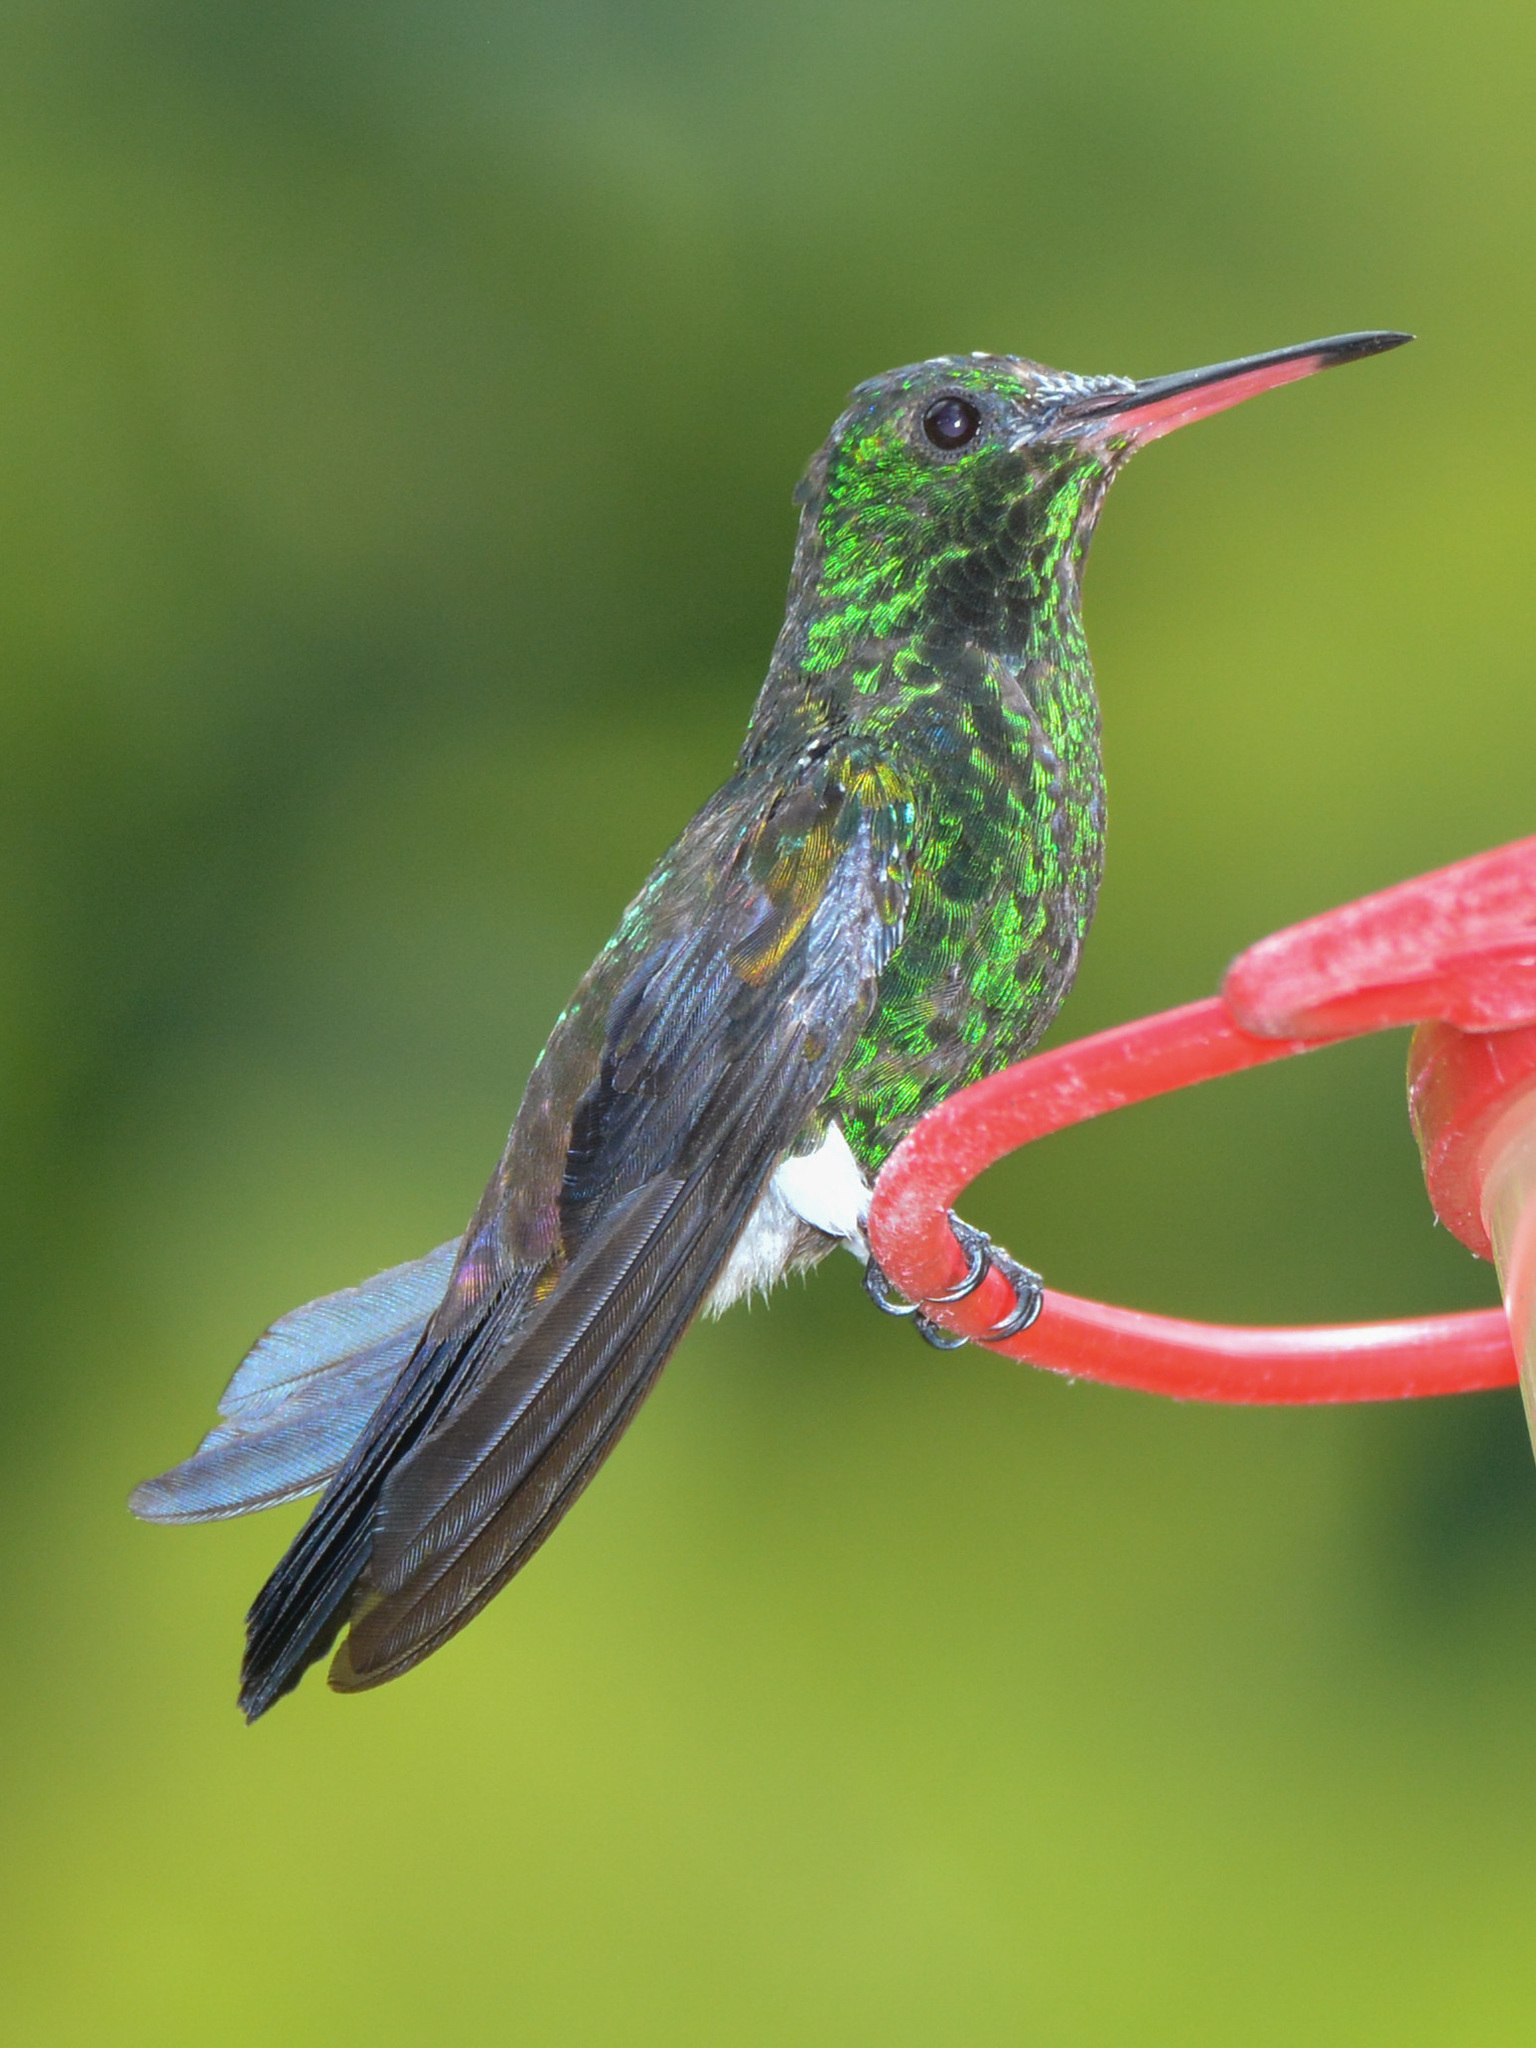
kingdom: Animalia
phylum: Chordata
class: Aves
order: Apodiformes
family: Trochilidae
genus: Saucerottia
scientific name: Saucerottia tobaci
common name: Copper-rumped hummingbird
